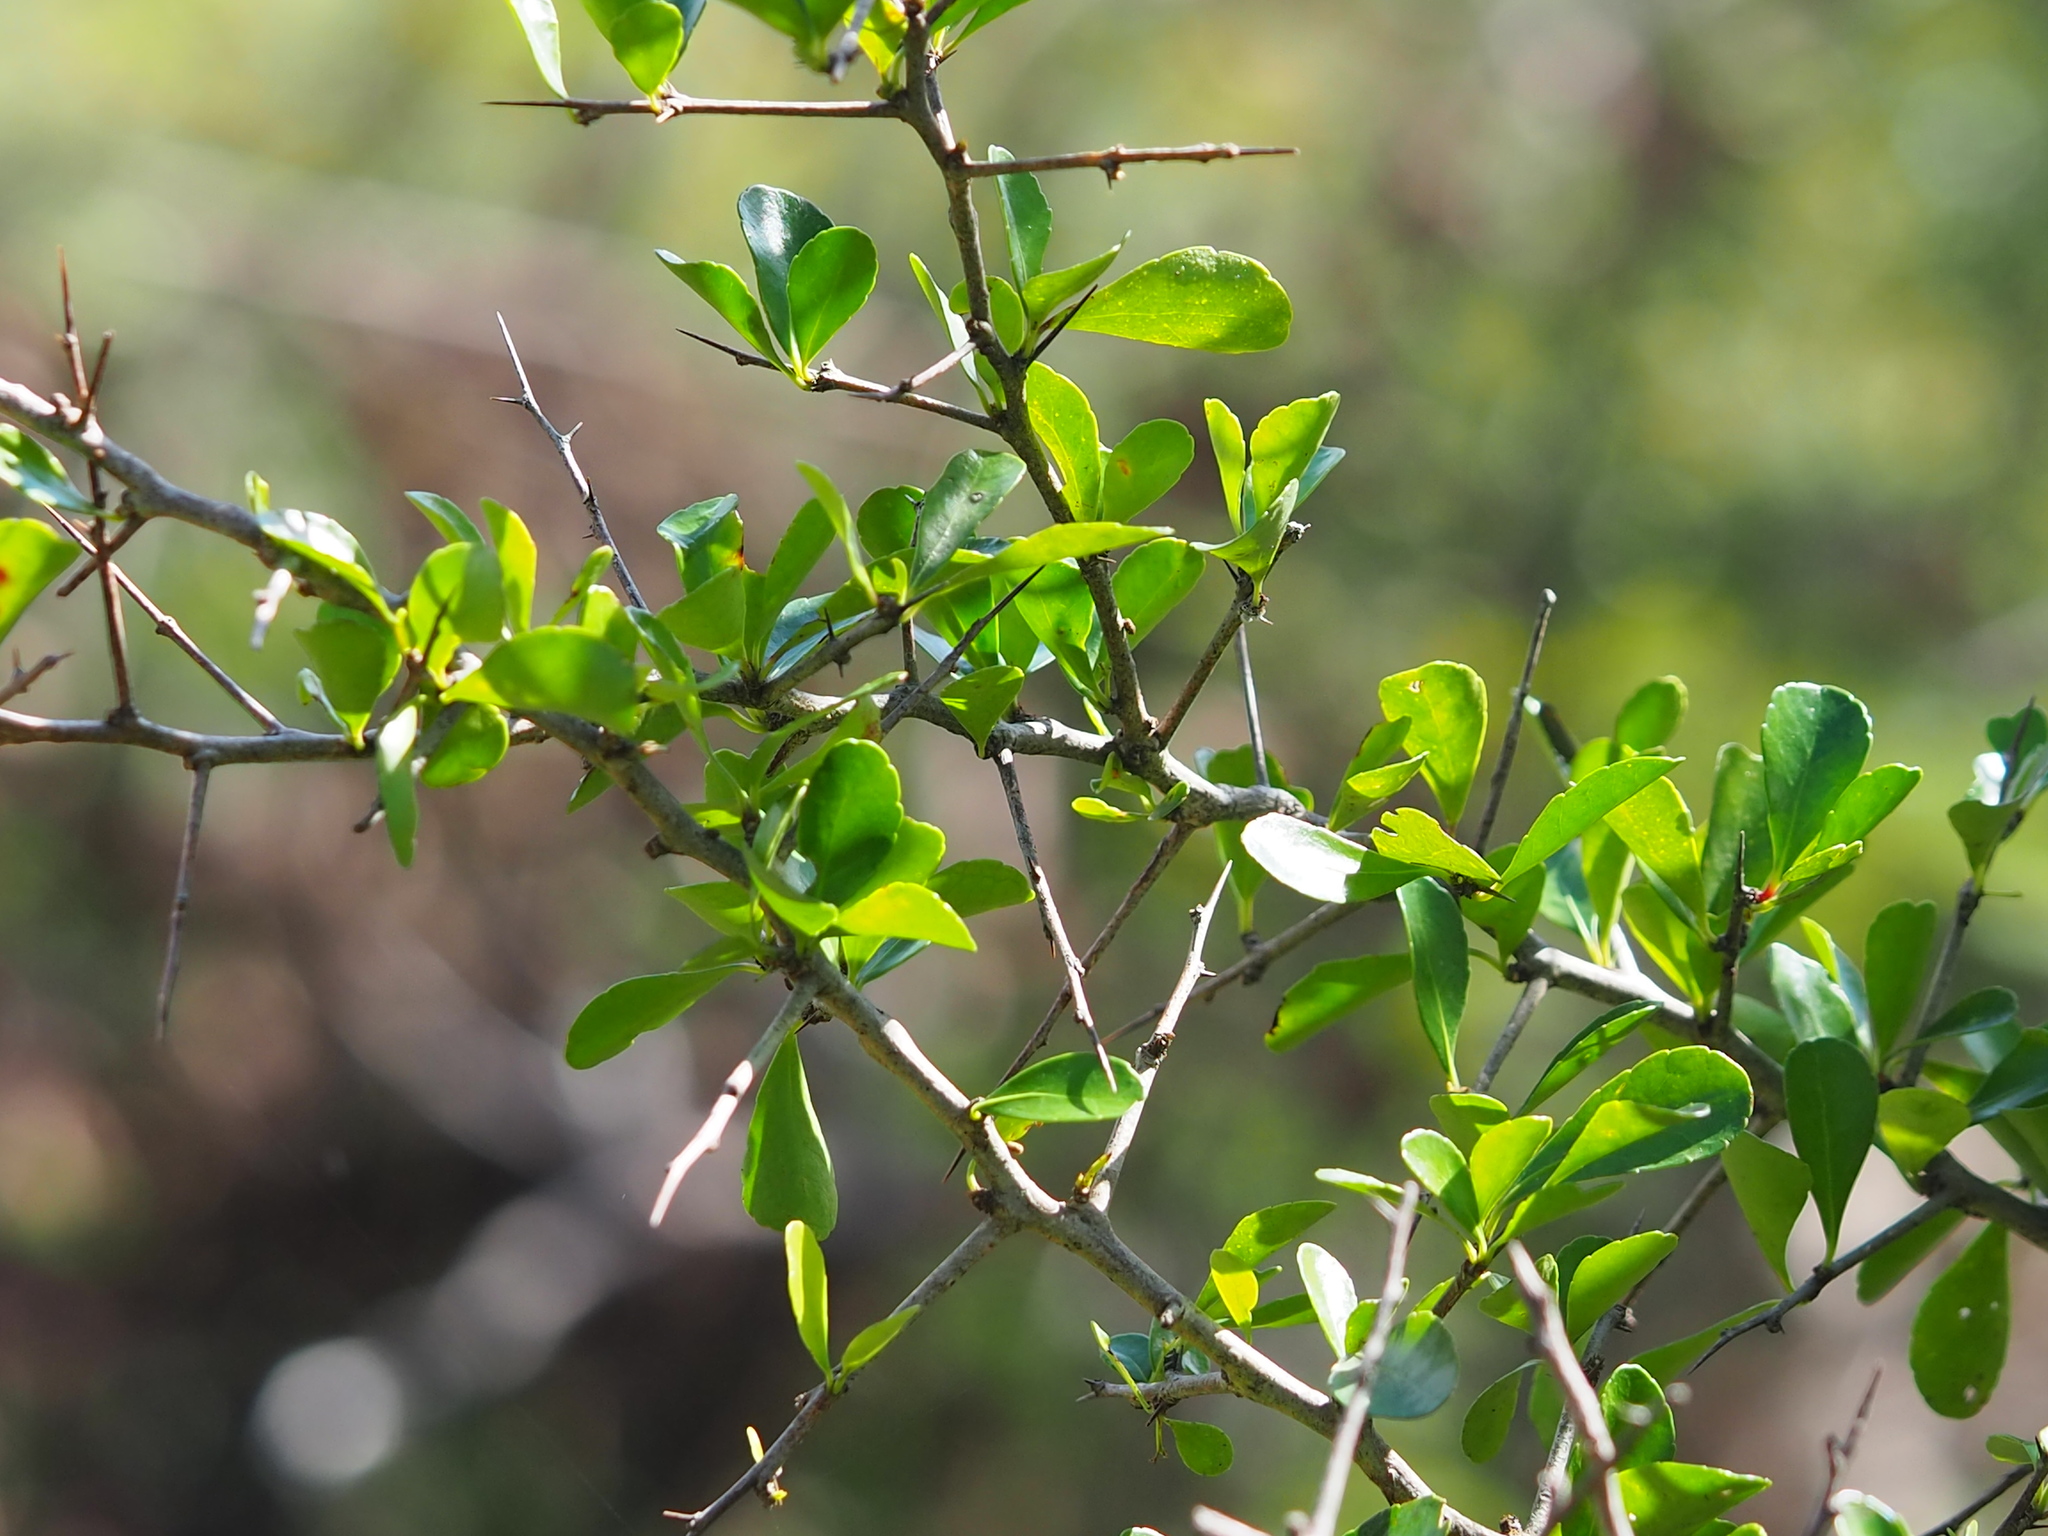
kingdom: Plantae
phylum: Tracheophyta
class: Magnoliopsida
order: Celastrales
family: Celastraceae
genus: Gymnosporia
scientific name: Gymnosporia diversifolia
